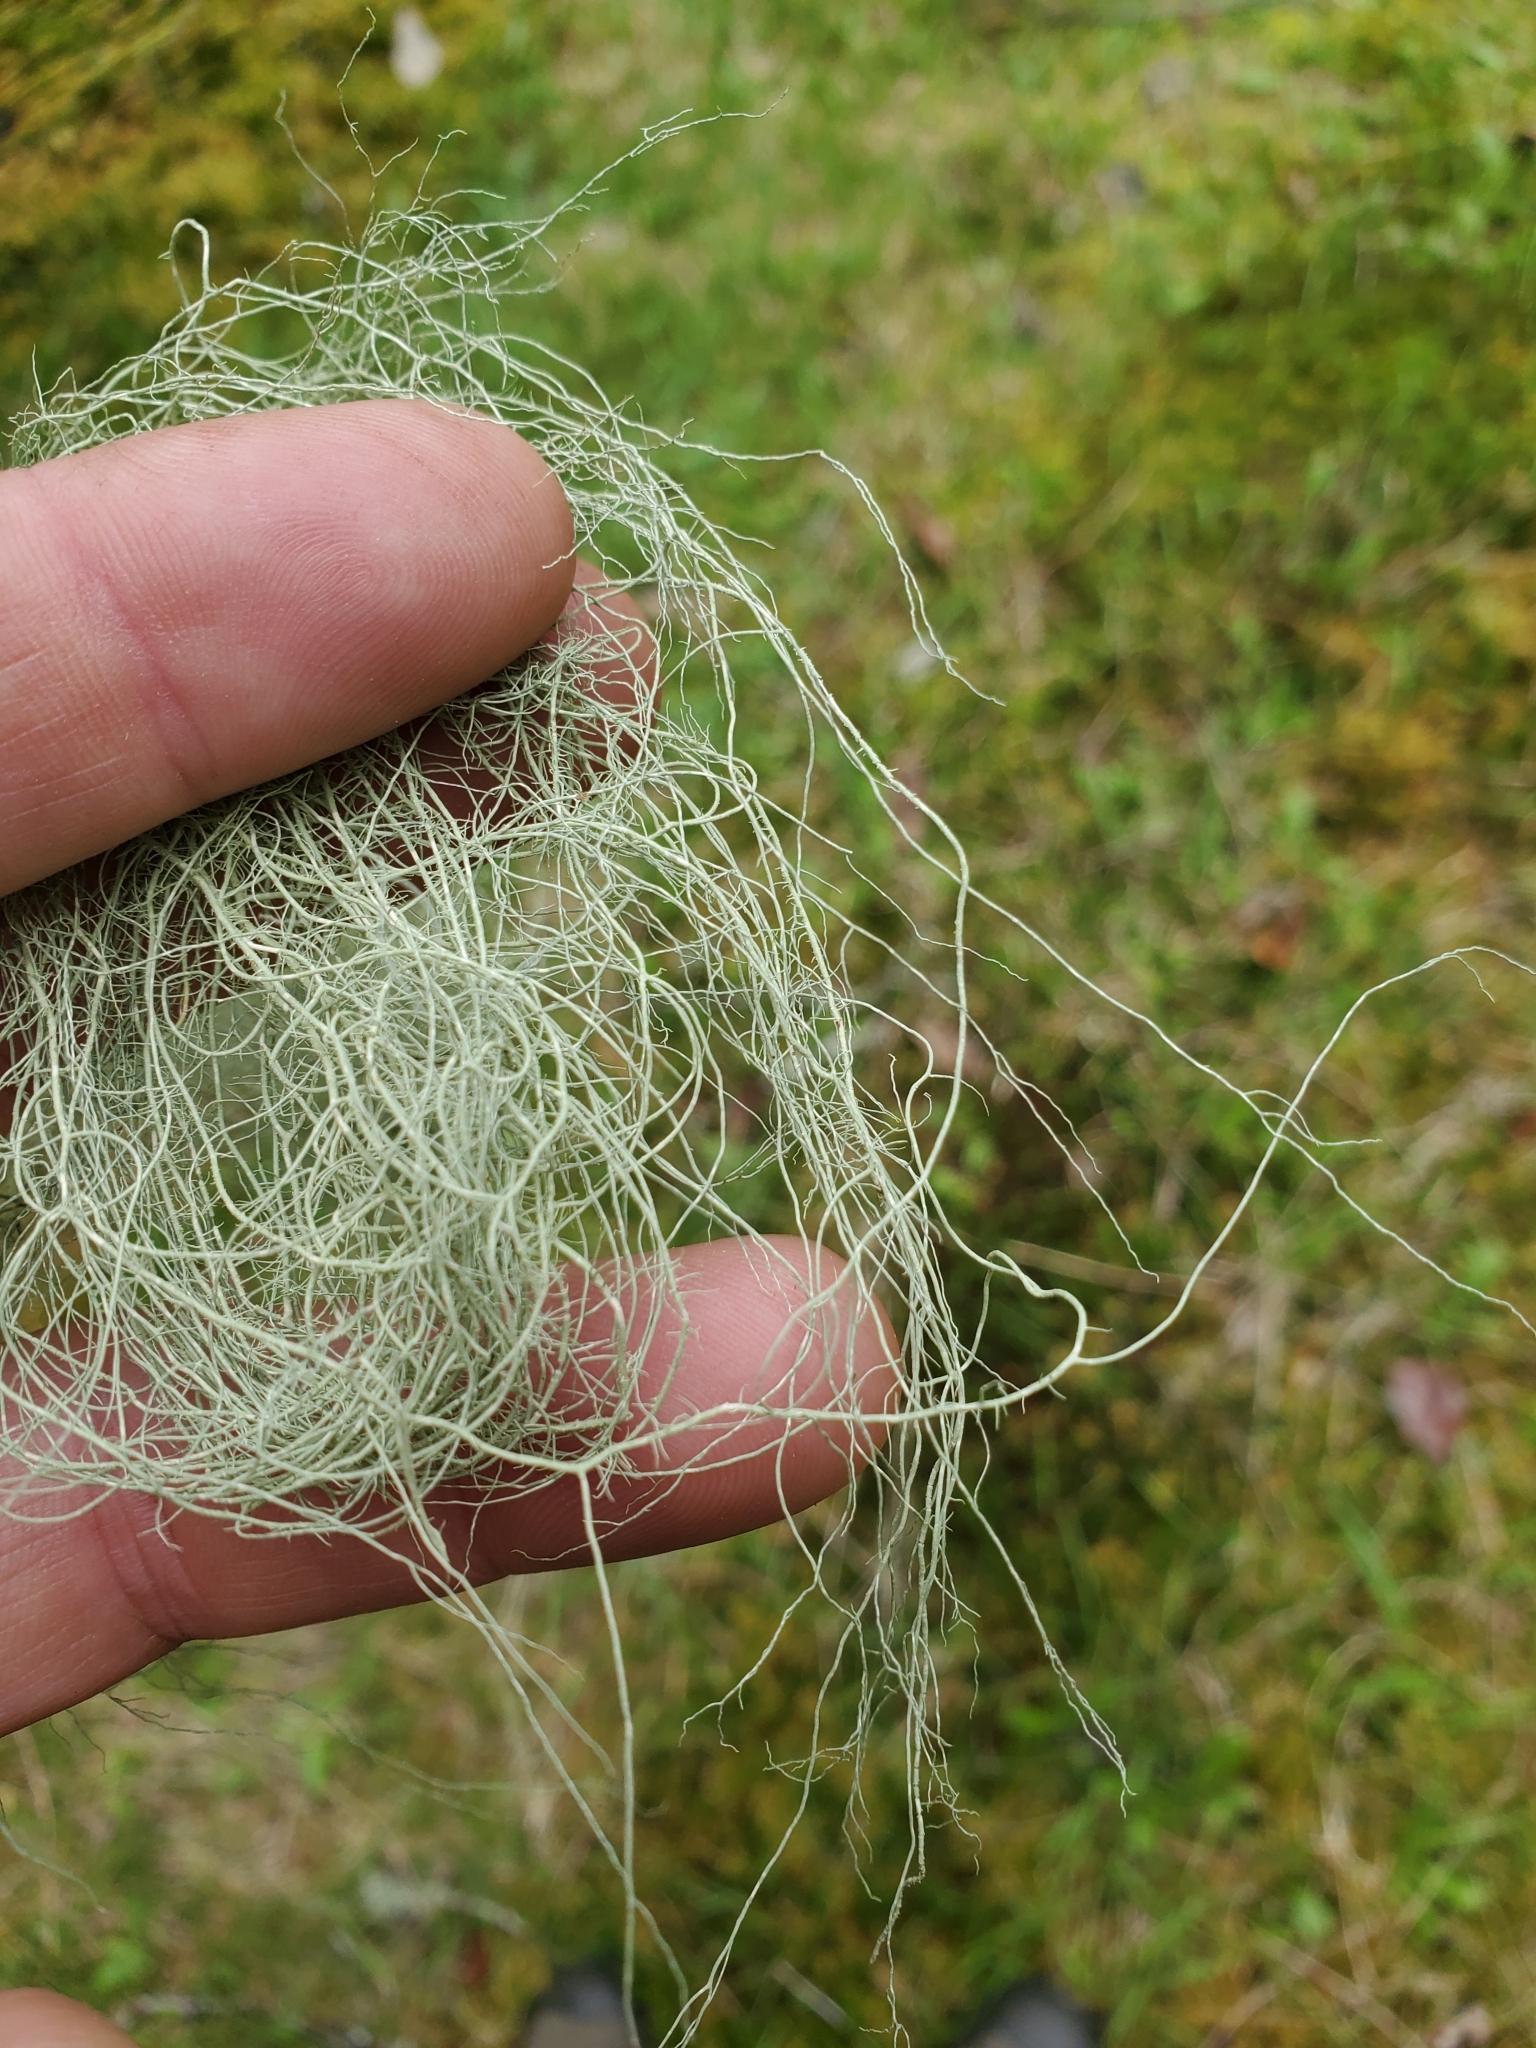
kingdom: Fungi
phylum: Ascomycota
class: Lecanoromycetes
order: Lecanorales
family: Parmeliaceae
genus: Alectoria
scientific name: Alectoria sarmentosa
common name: Witch's hair
